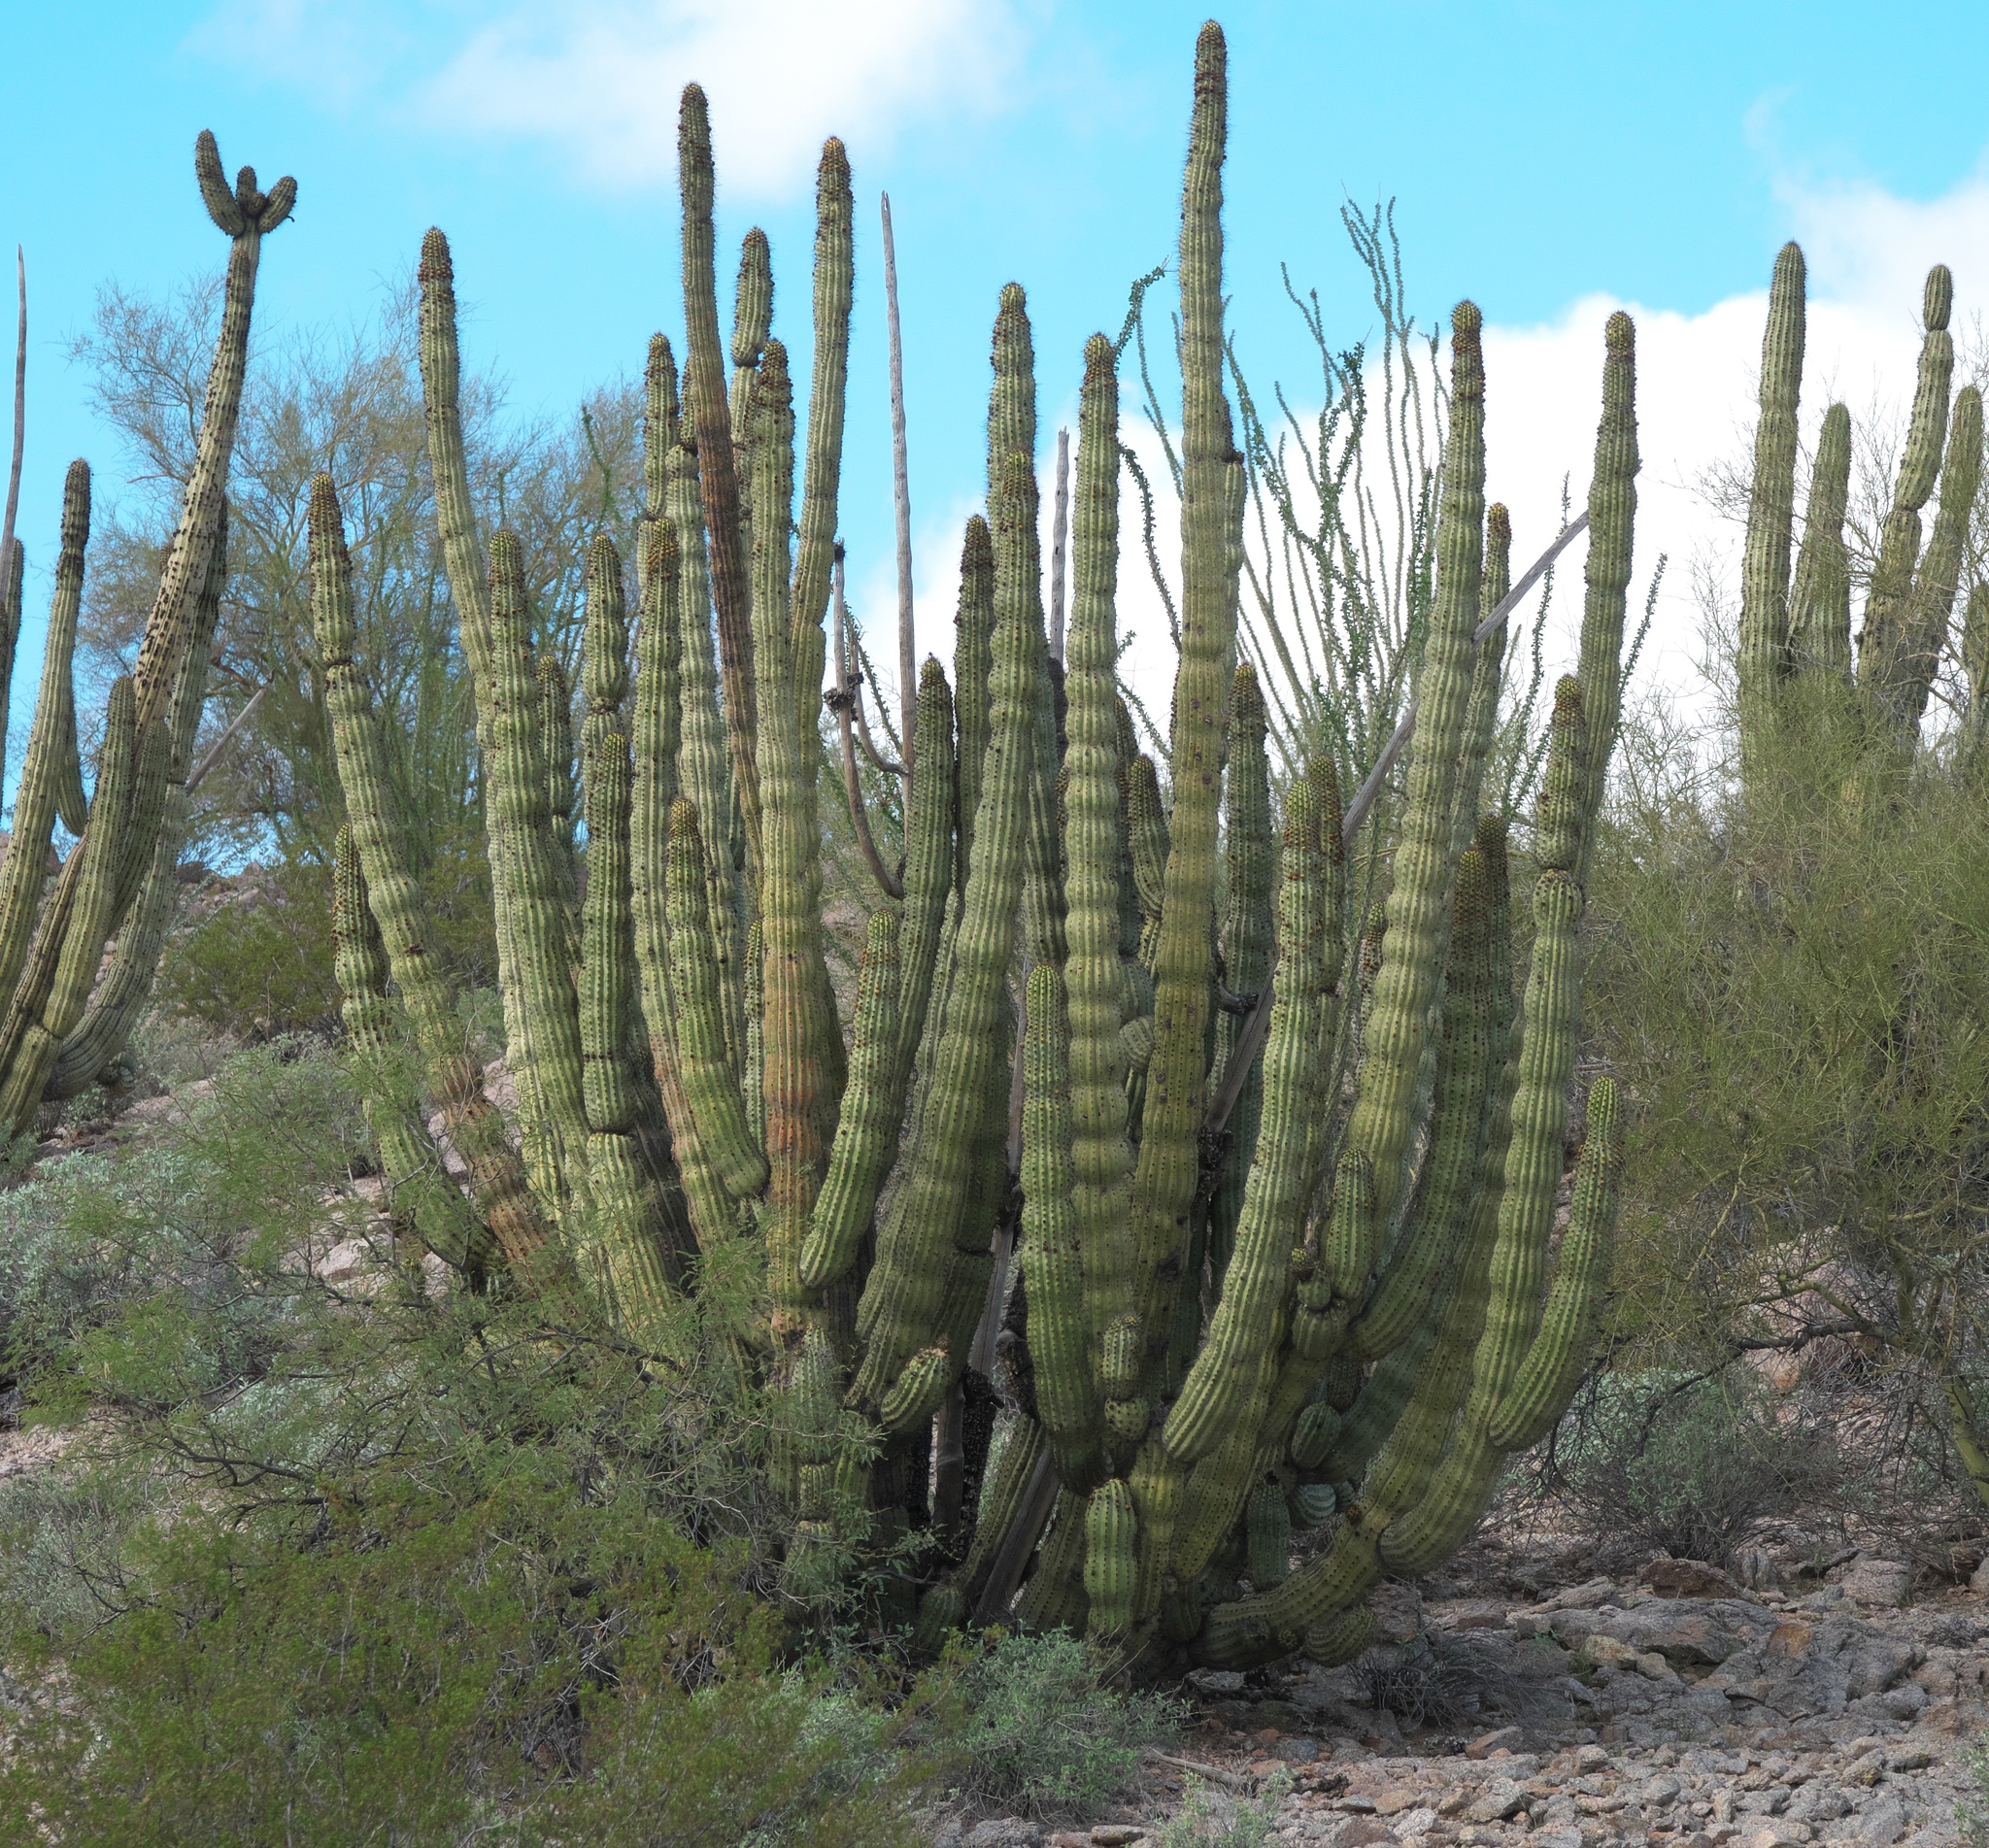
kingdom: Plantae
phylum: Tracheophyta
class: Magnoliopsida
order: Caryophyllales
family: Cactaceae
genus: Stenocereus
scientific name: Stenocereus thurberi
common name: Organ pipe cactus
